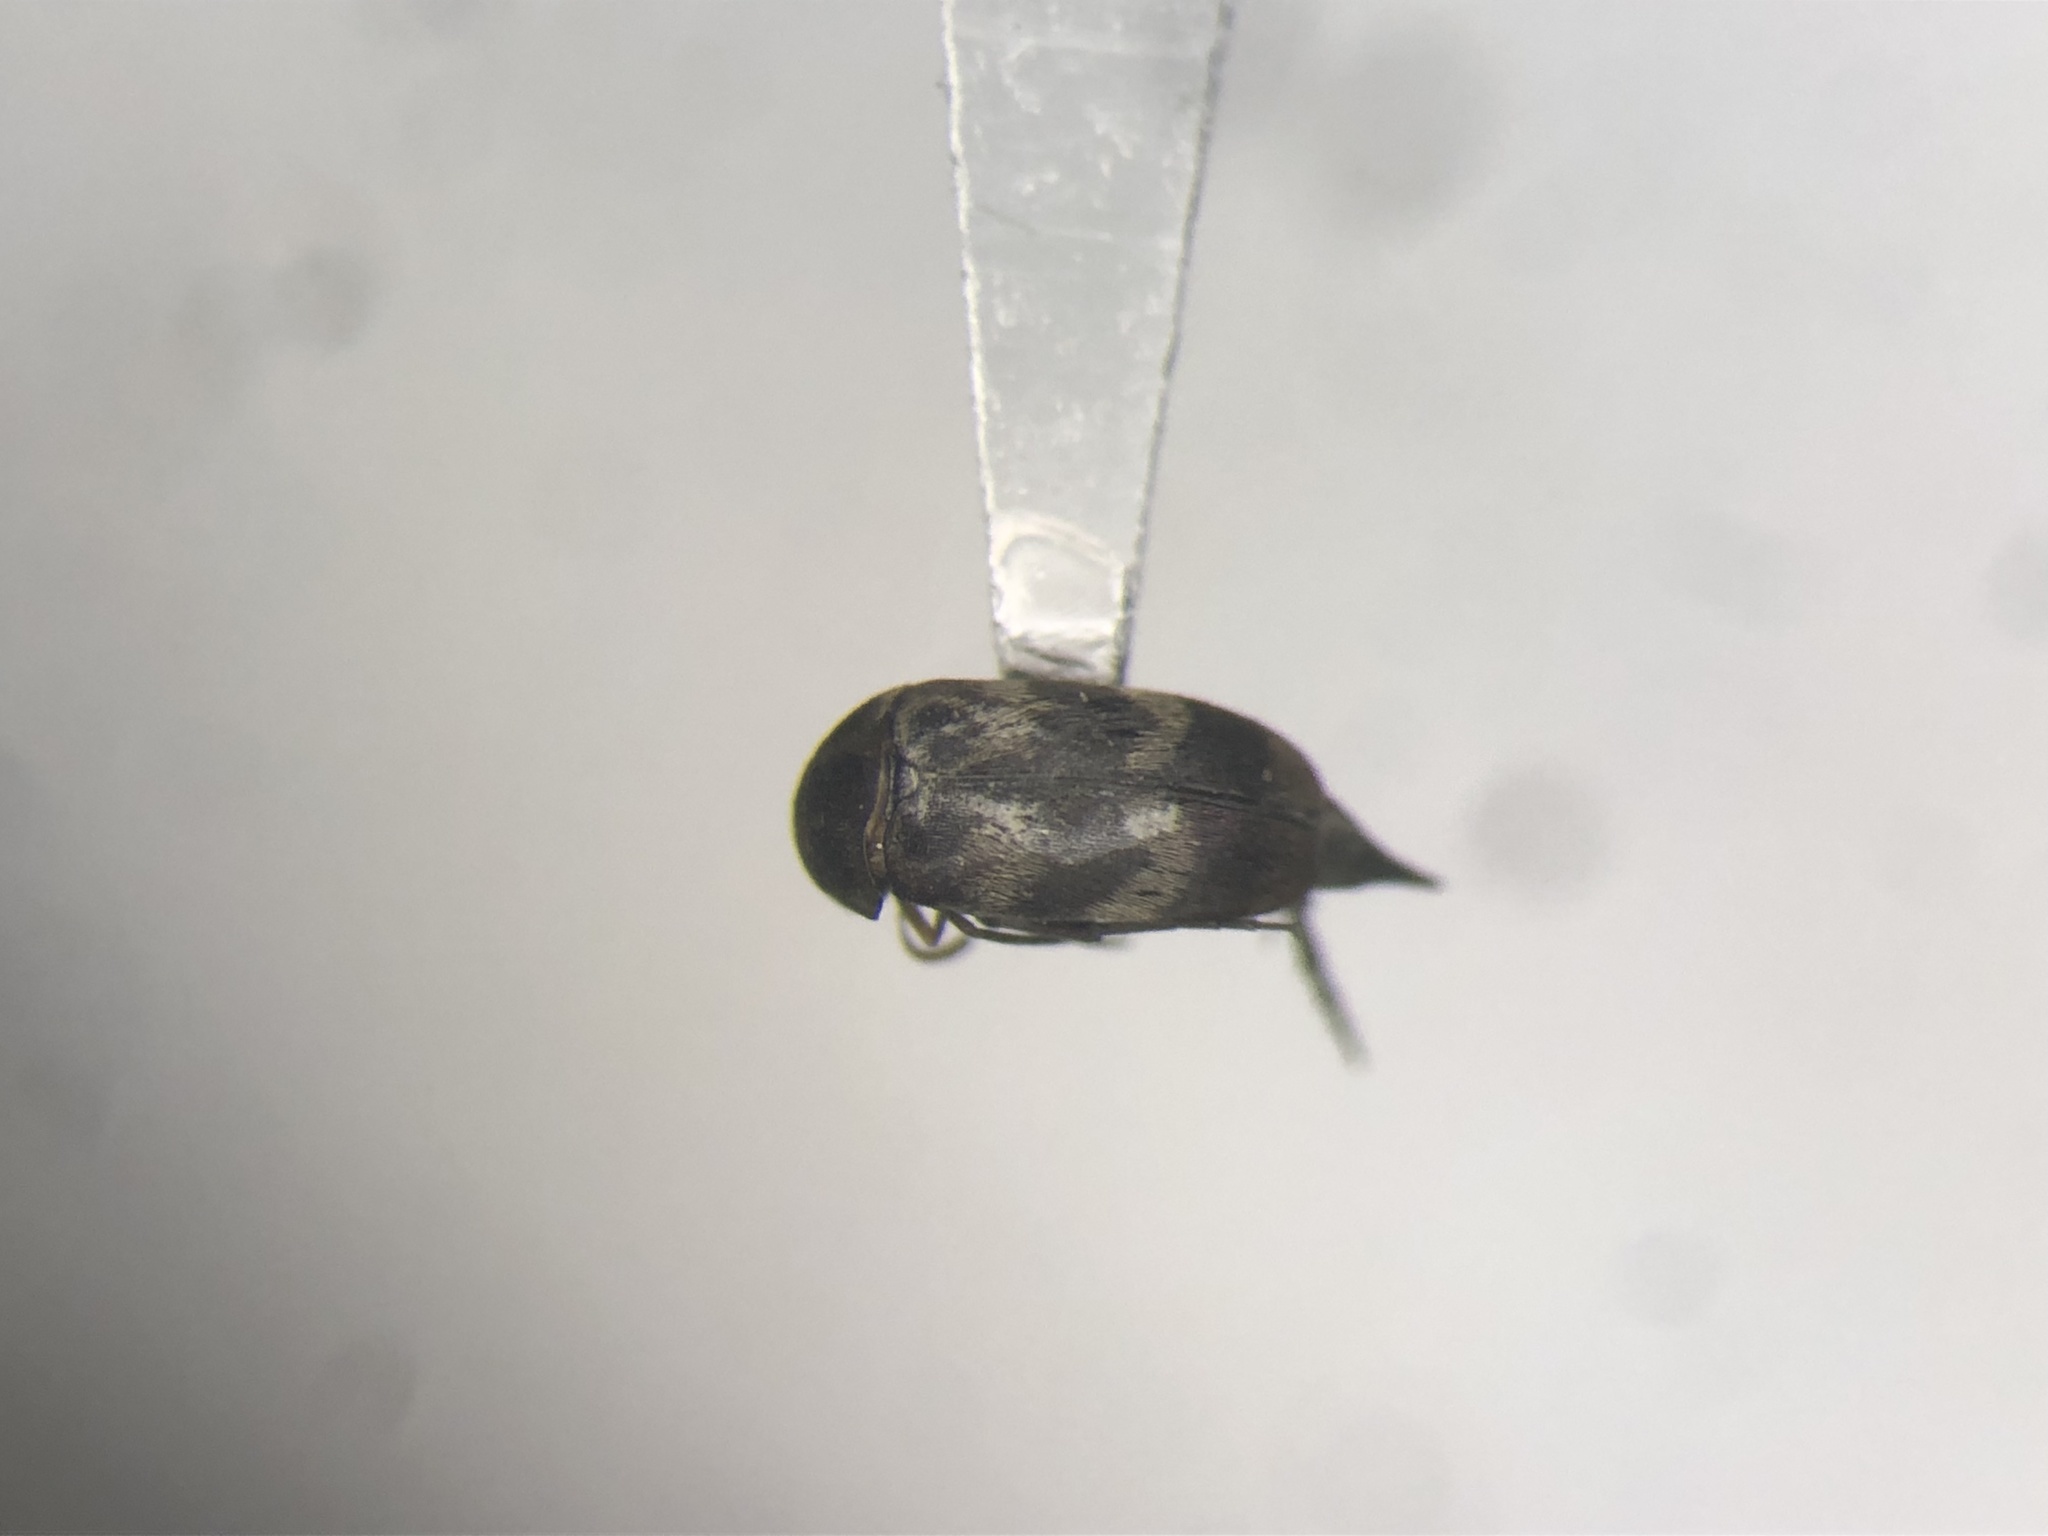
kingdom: Animalia
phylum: Arthropoda
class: Insecta
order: Coleoptera
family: Mordellidae
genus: Mordellaria
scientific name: Mordellaria undulata
